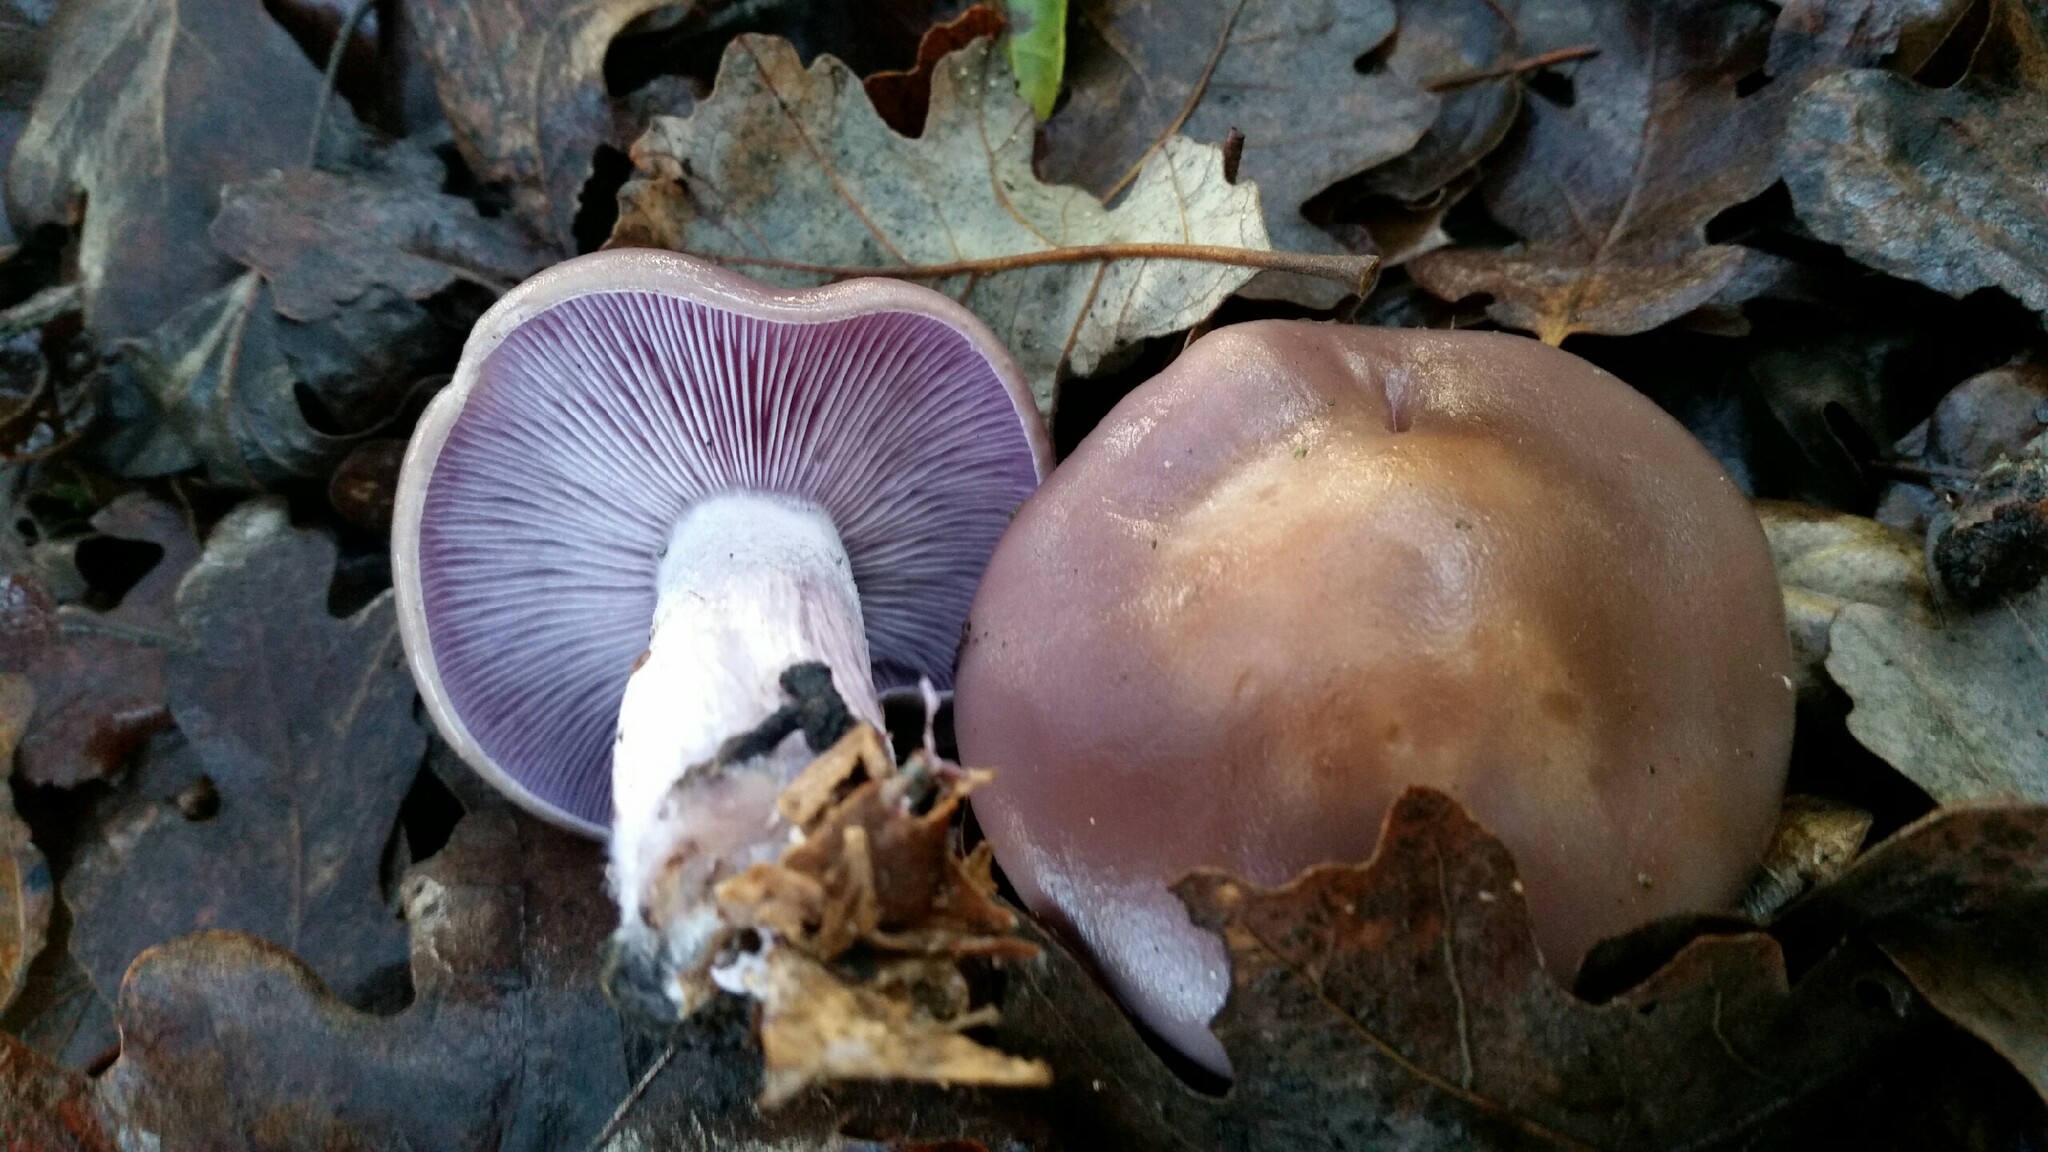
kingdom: Fungi
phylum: Basidiomycota
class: Agaricomycetes
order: Agaricales
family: Tricholomataceae
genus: Collybia
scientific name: Collybia
